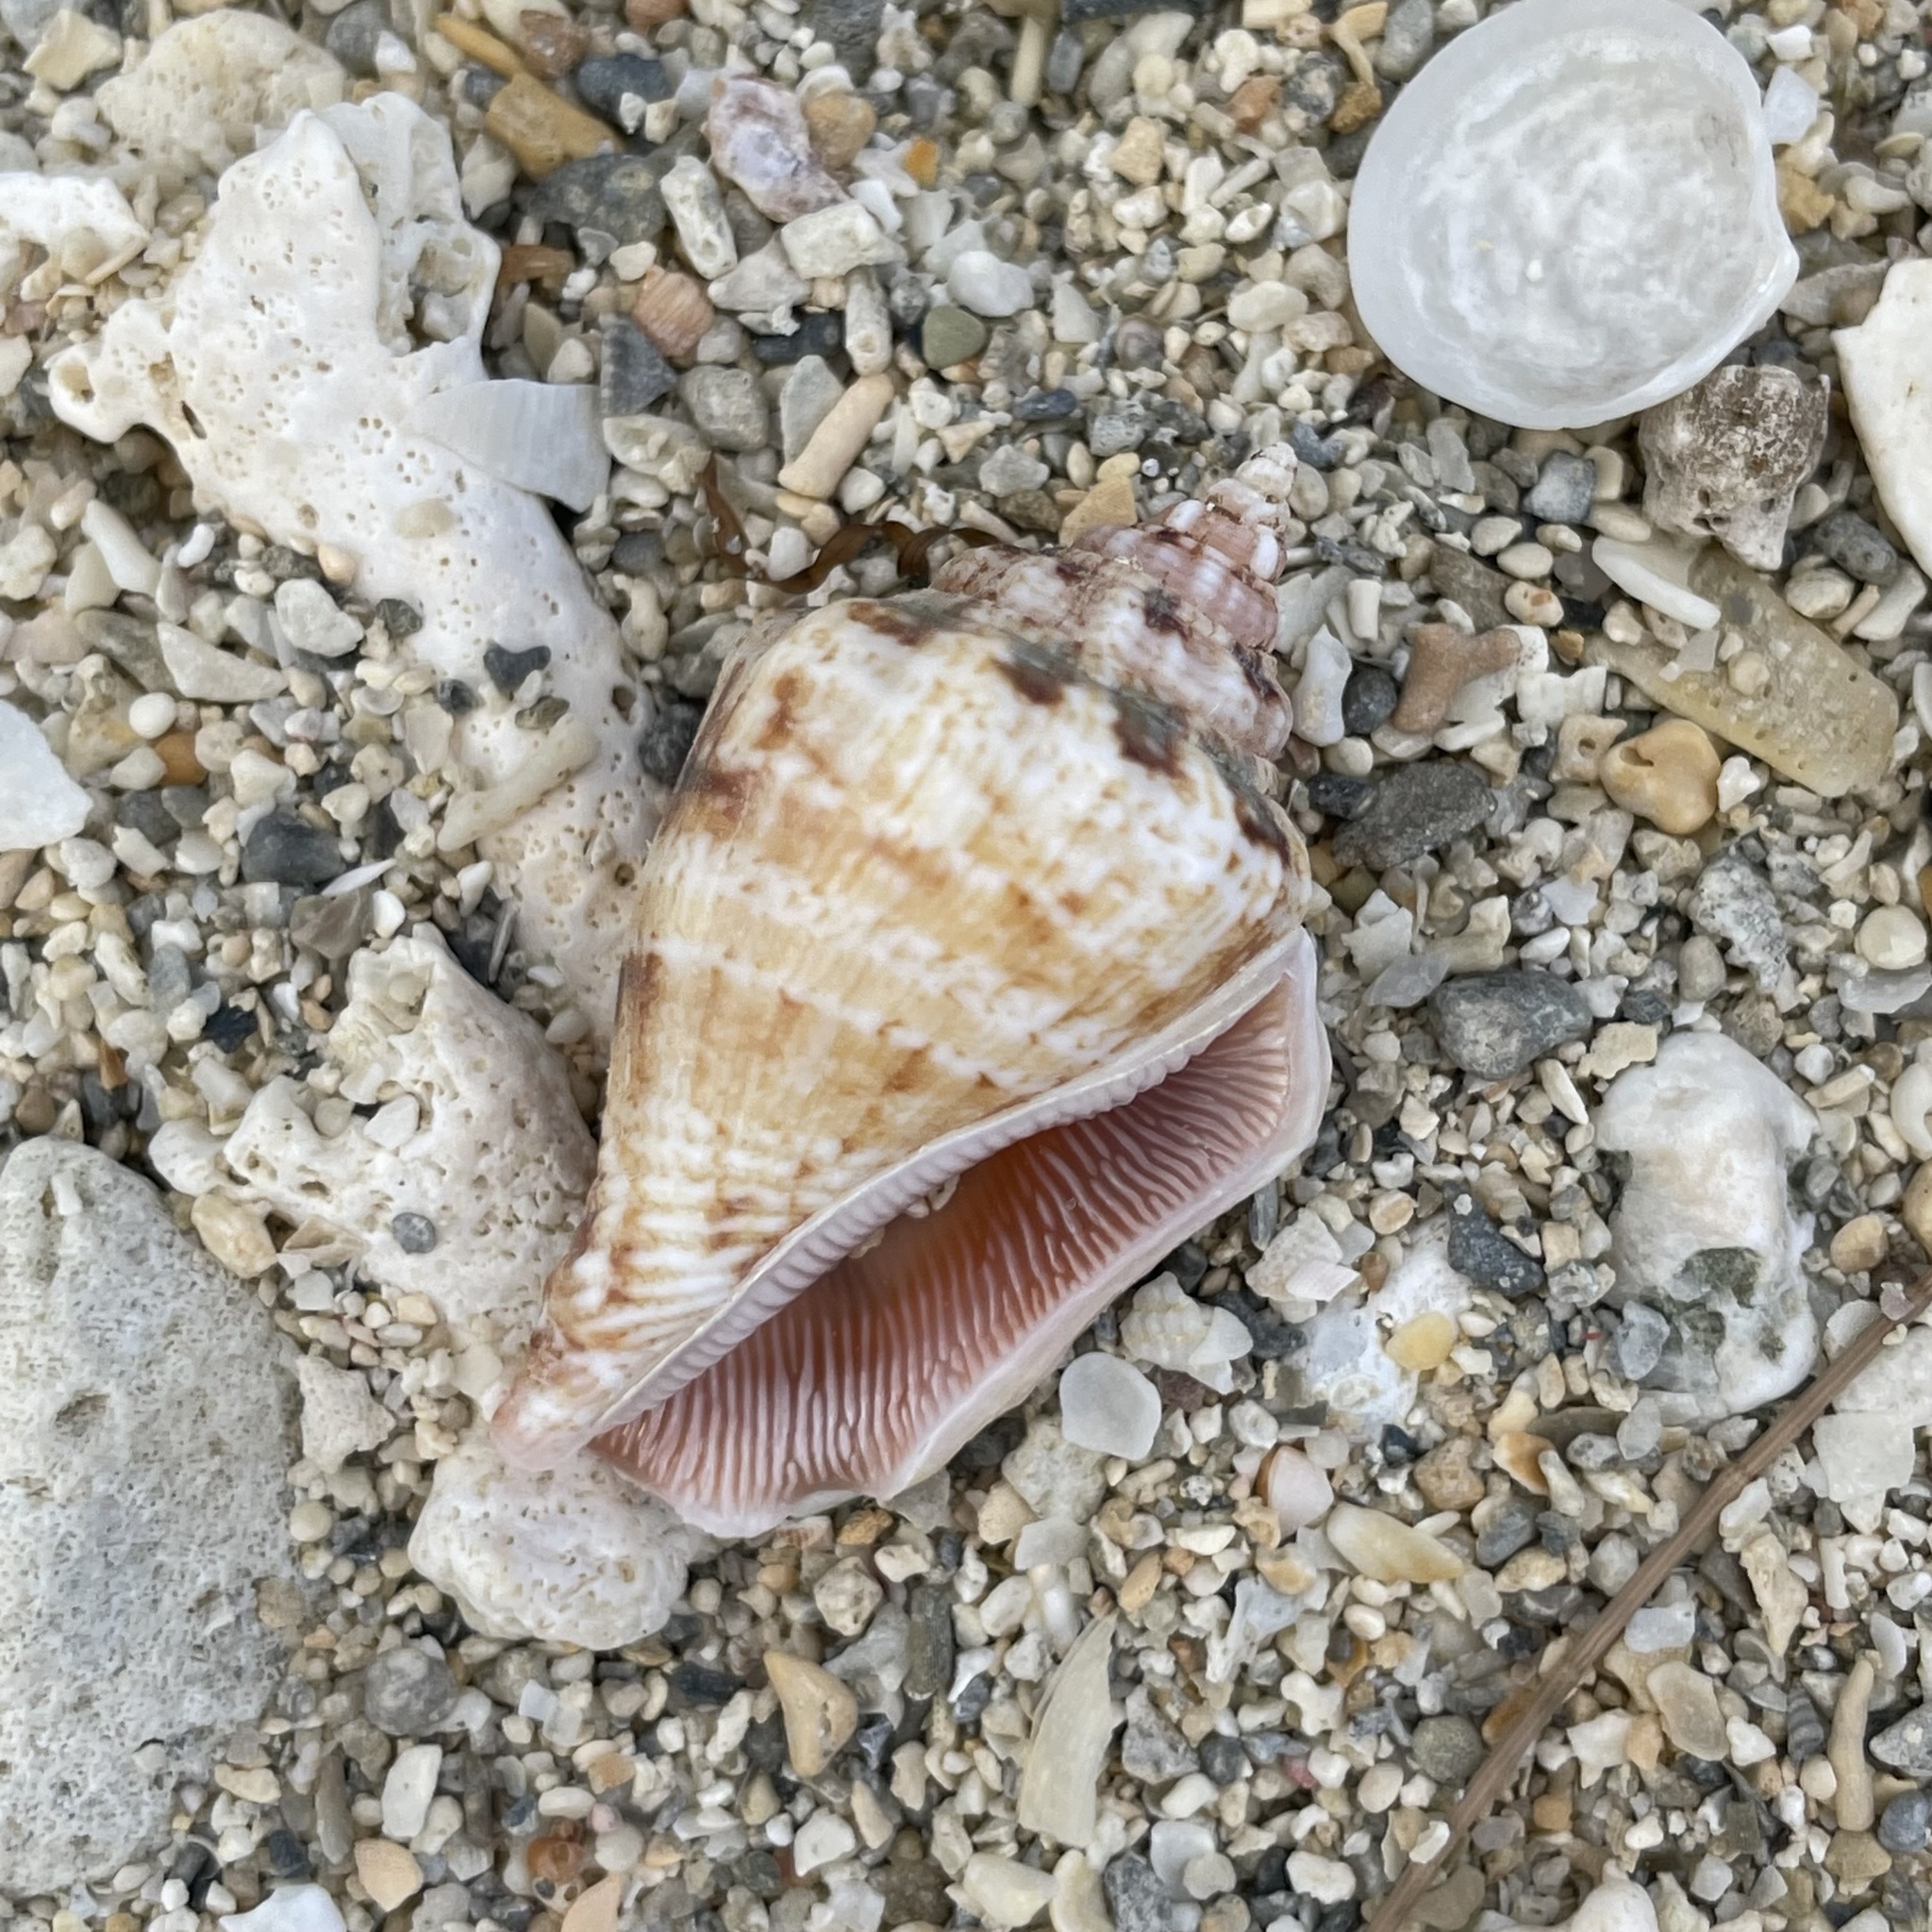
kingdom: Animalia
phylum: Mollusca
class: Gastropoda
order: Littorinimorpha
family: Strombidae
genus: Canarium
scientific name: Canarium mutabile
